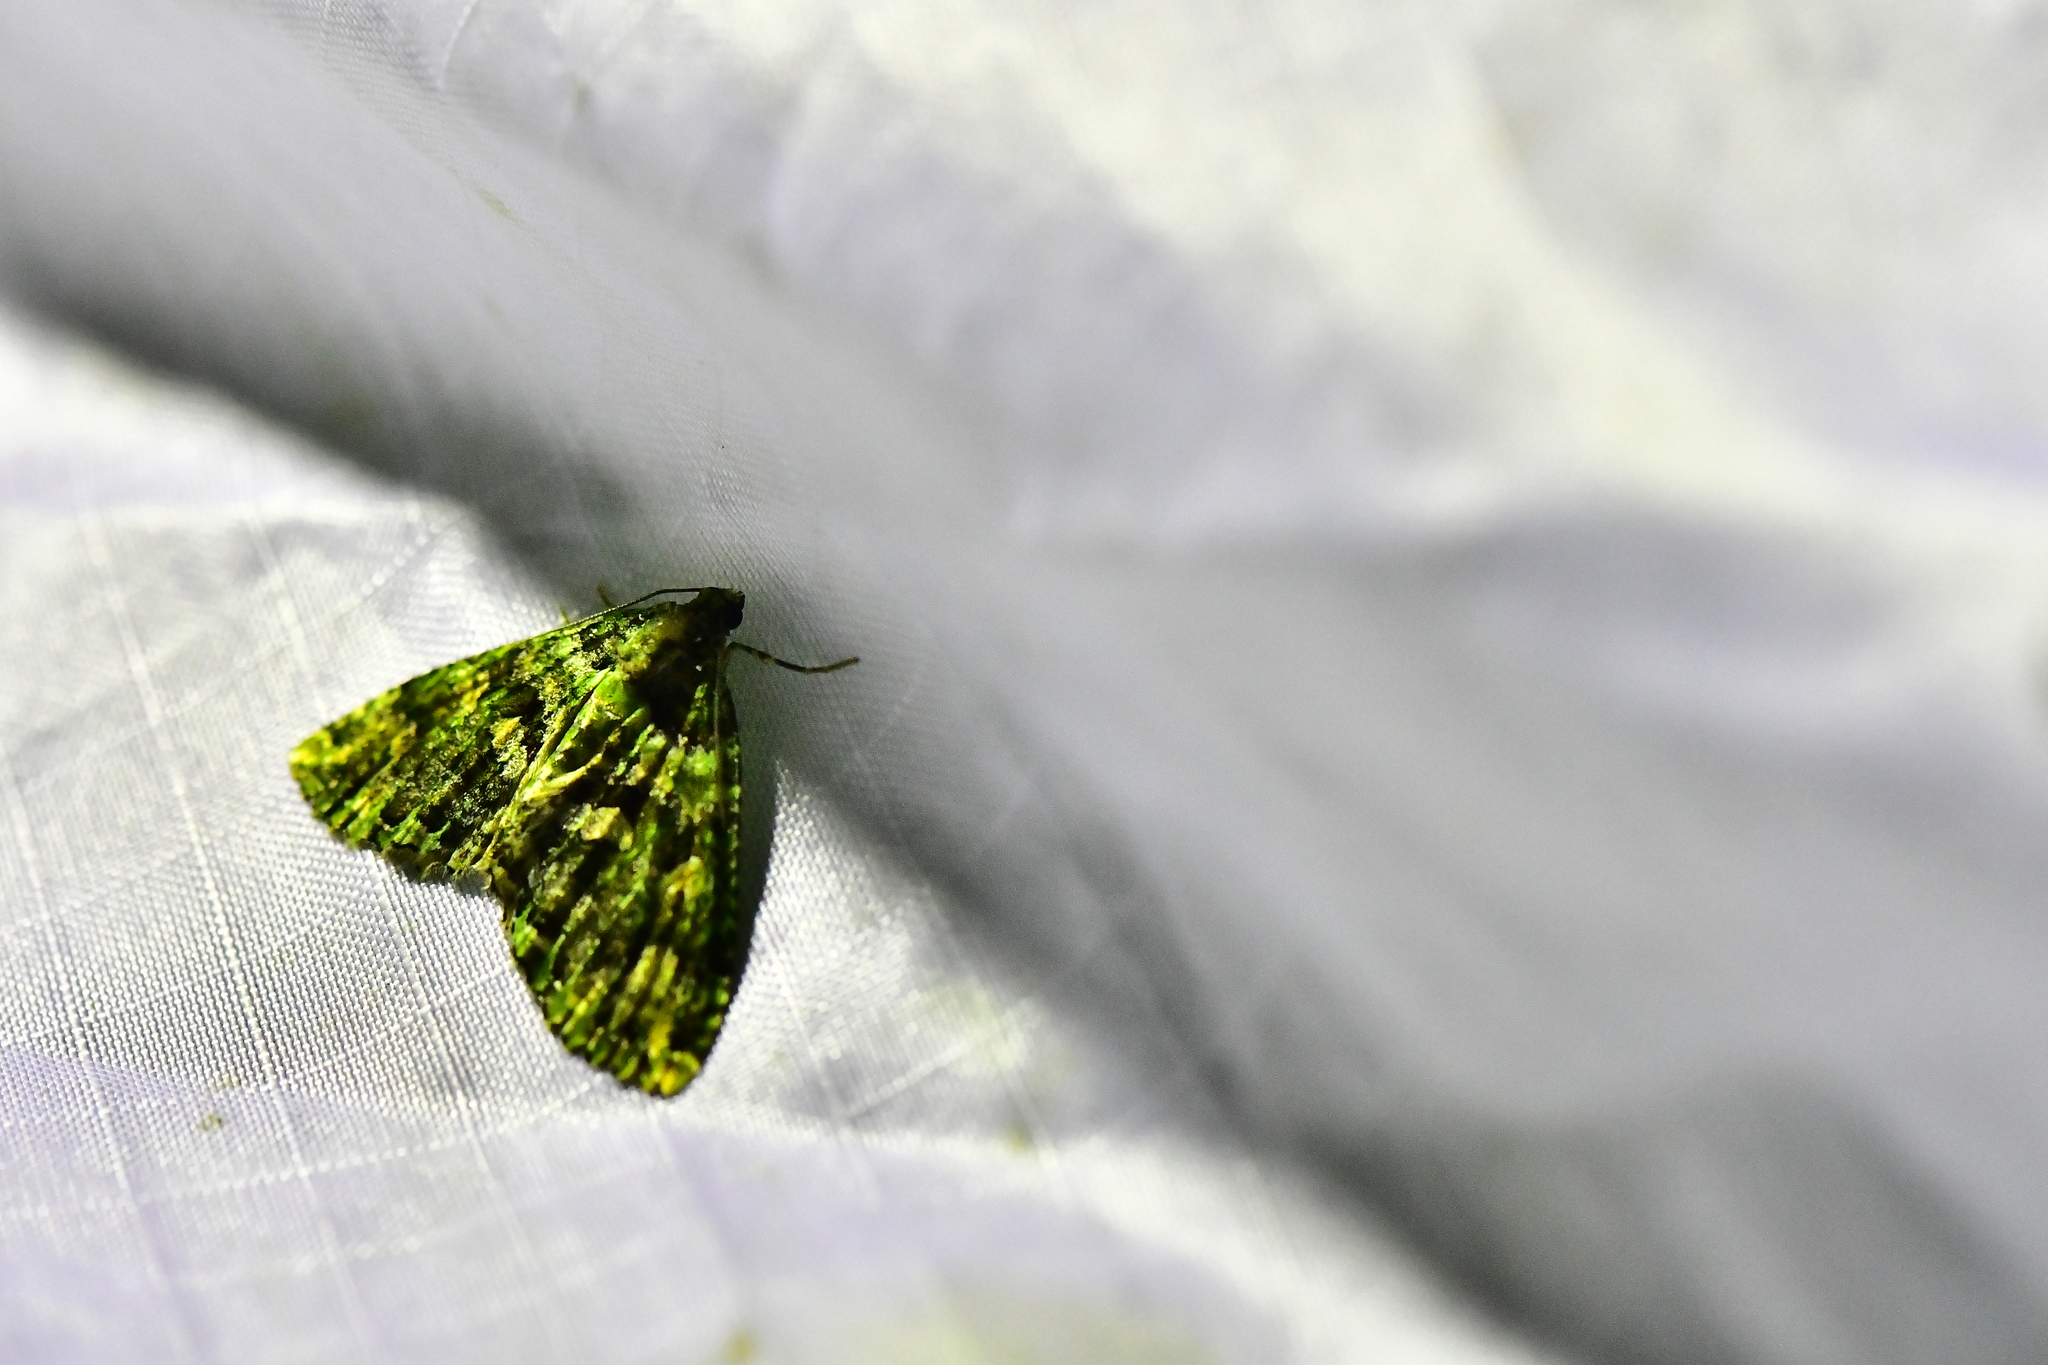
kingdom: Animalia
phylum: Arthropoda
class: Insecta
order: Lepidoptera
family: Geometridae
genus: Austrocidaria
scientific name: Austrocidaria similata
